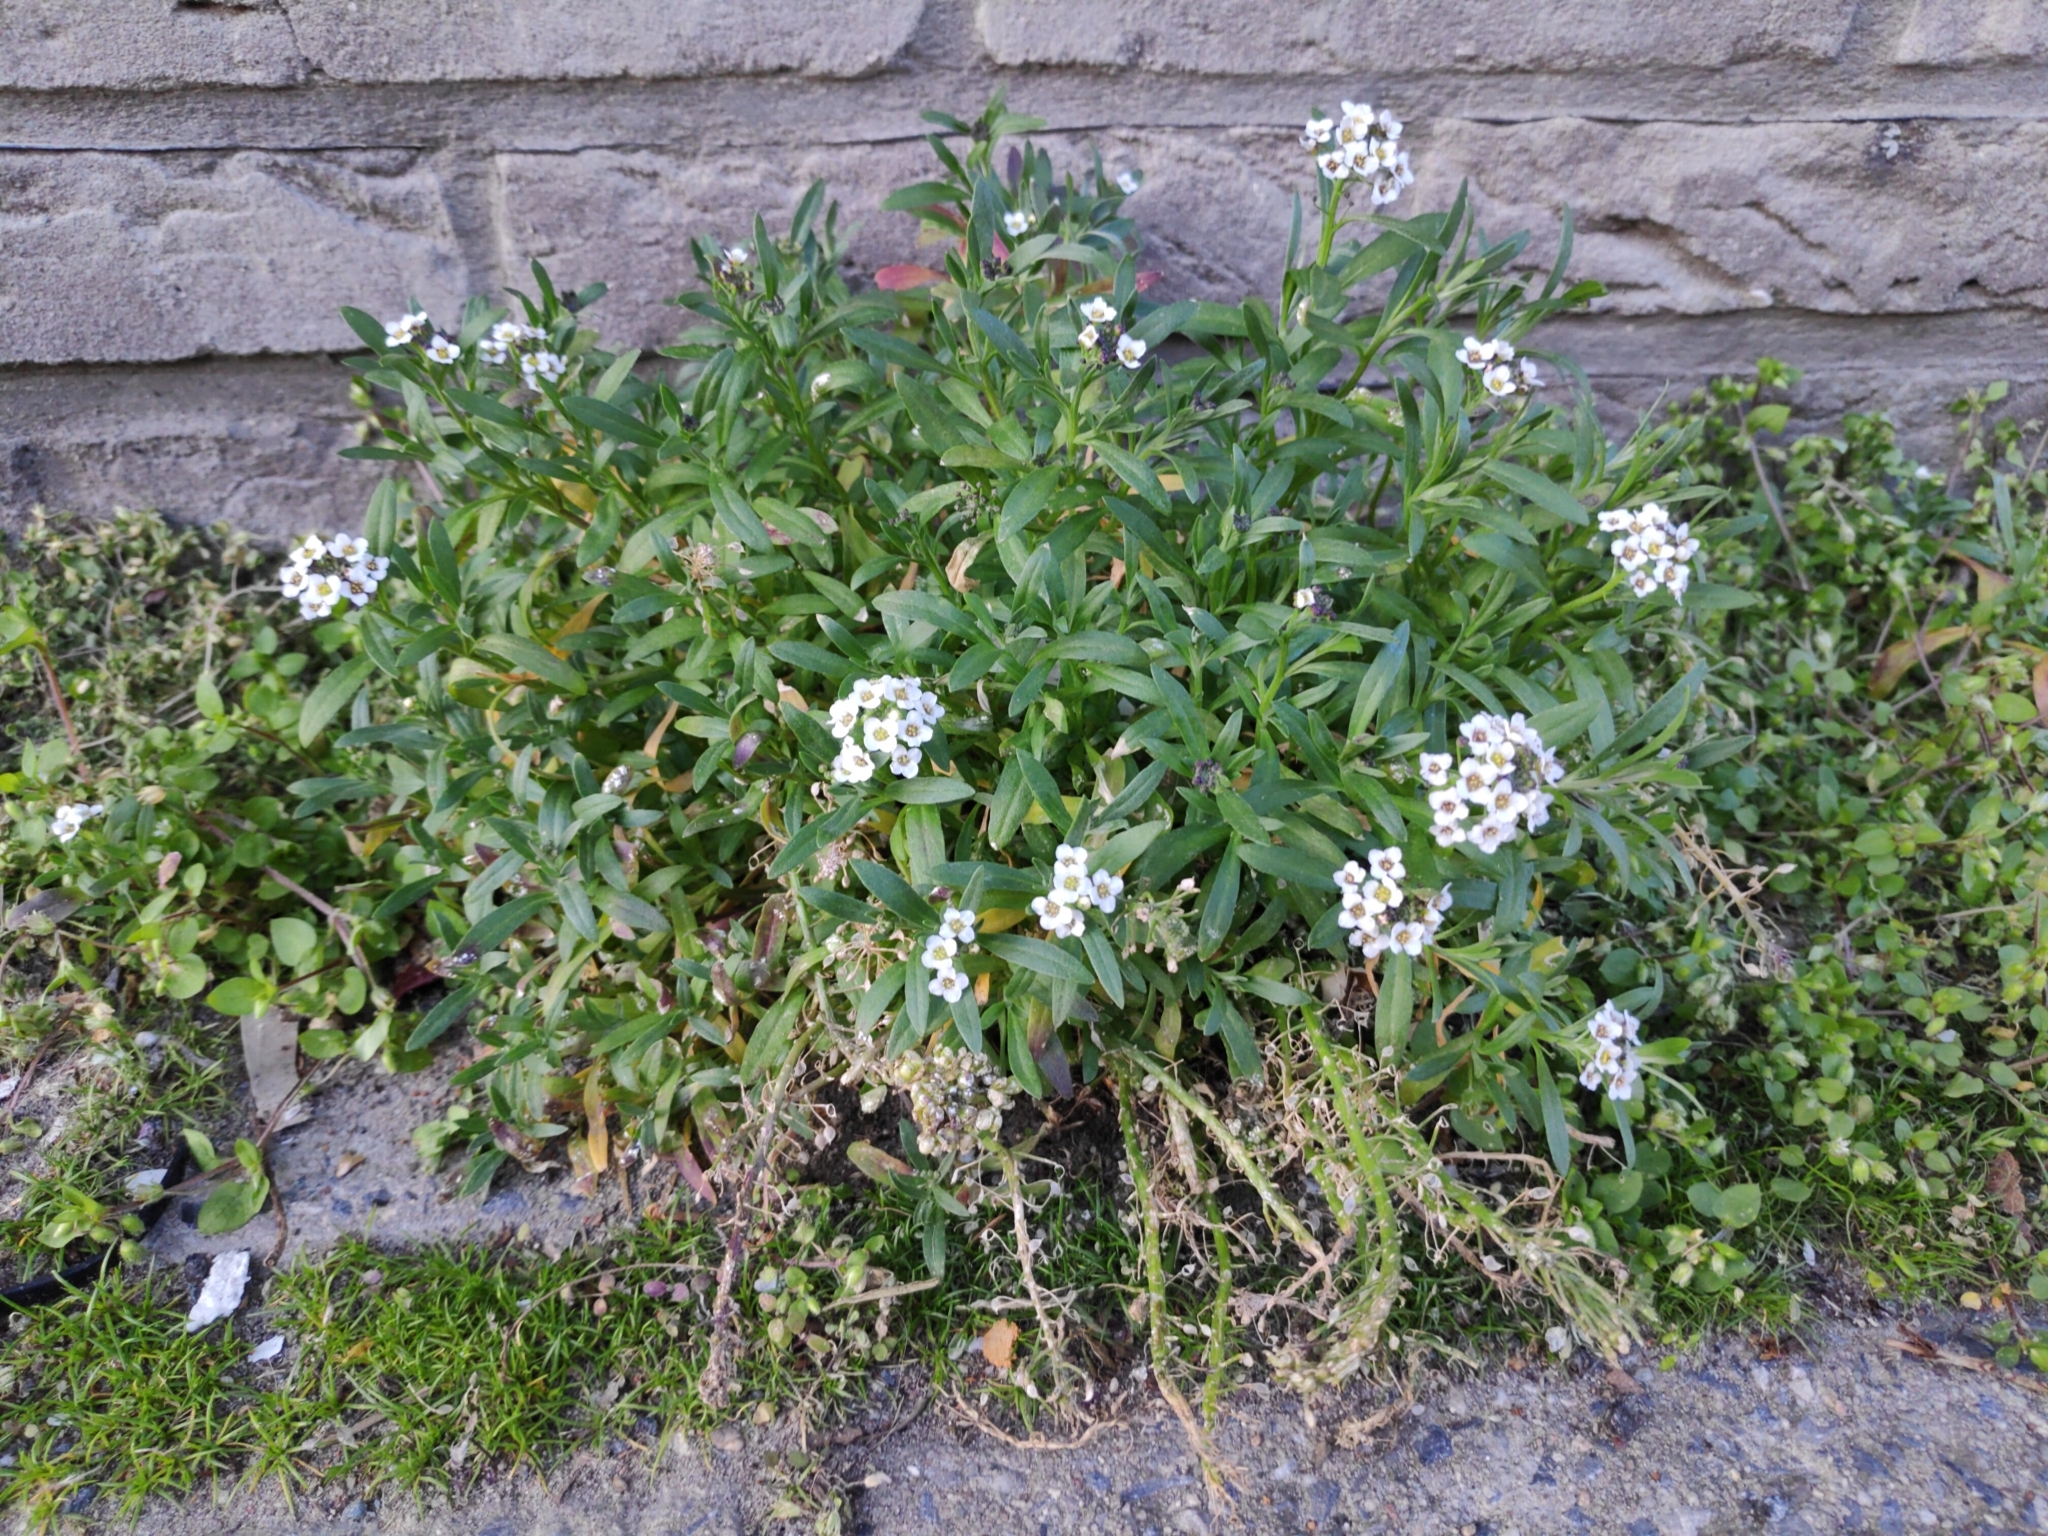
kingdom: Plantae
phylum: Tracheophyta
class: Magnoliopsida
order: Brassicales
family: Brassicaceae
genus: Lobularia
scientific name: Lobularia maritima
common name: Sweet alison
